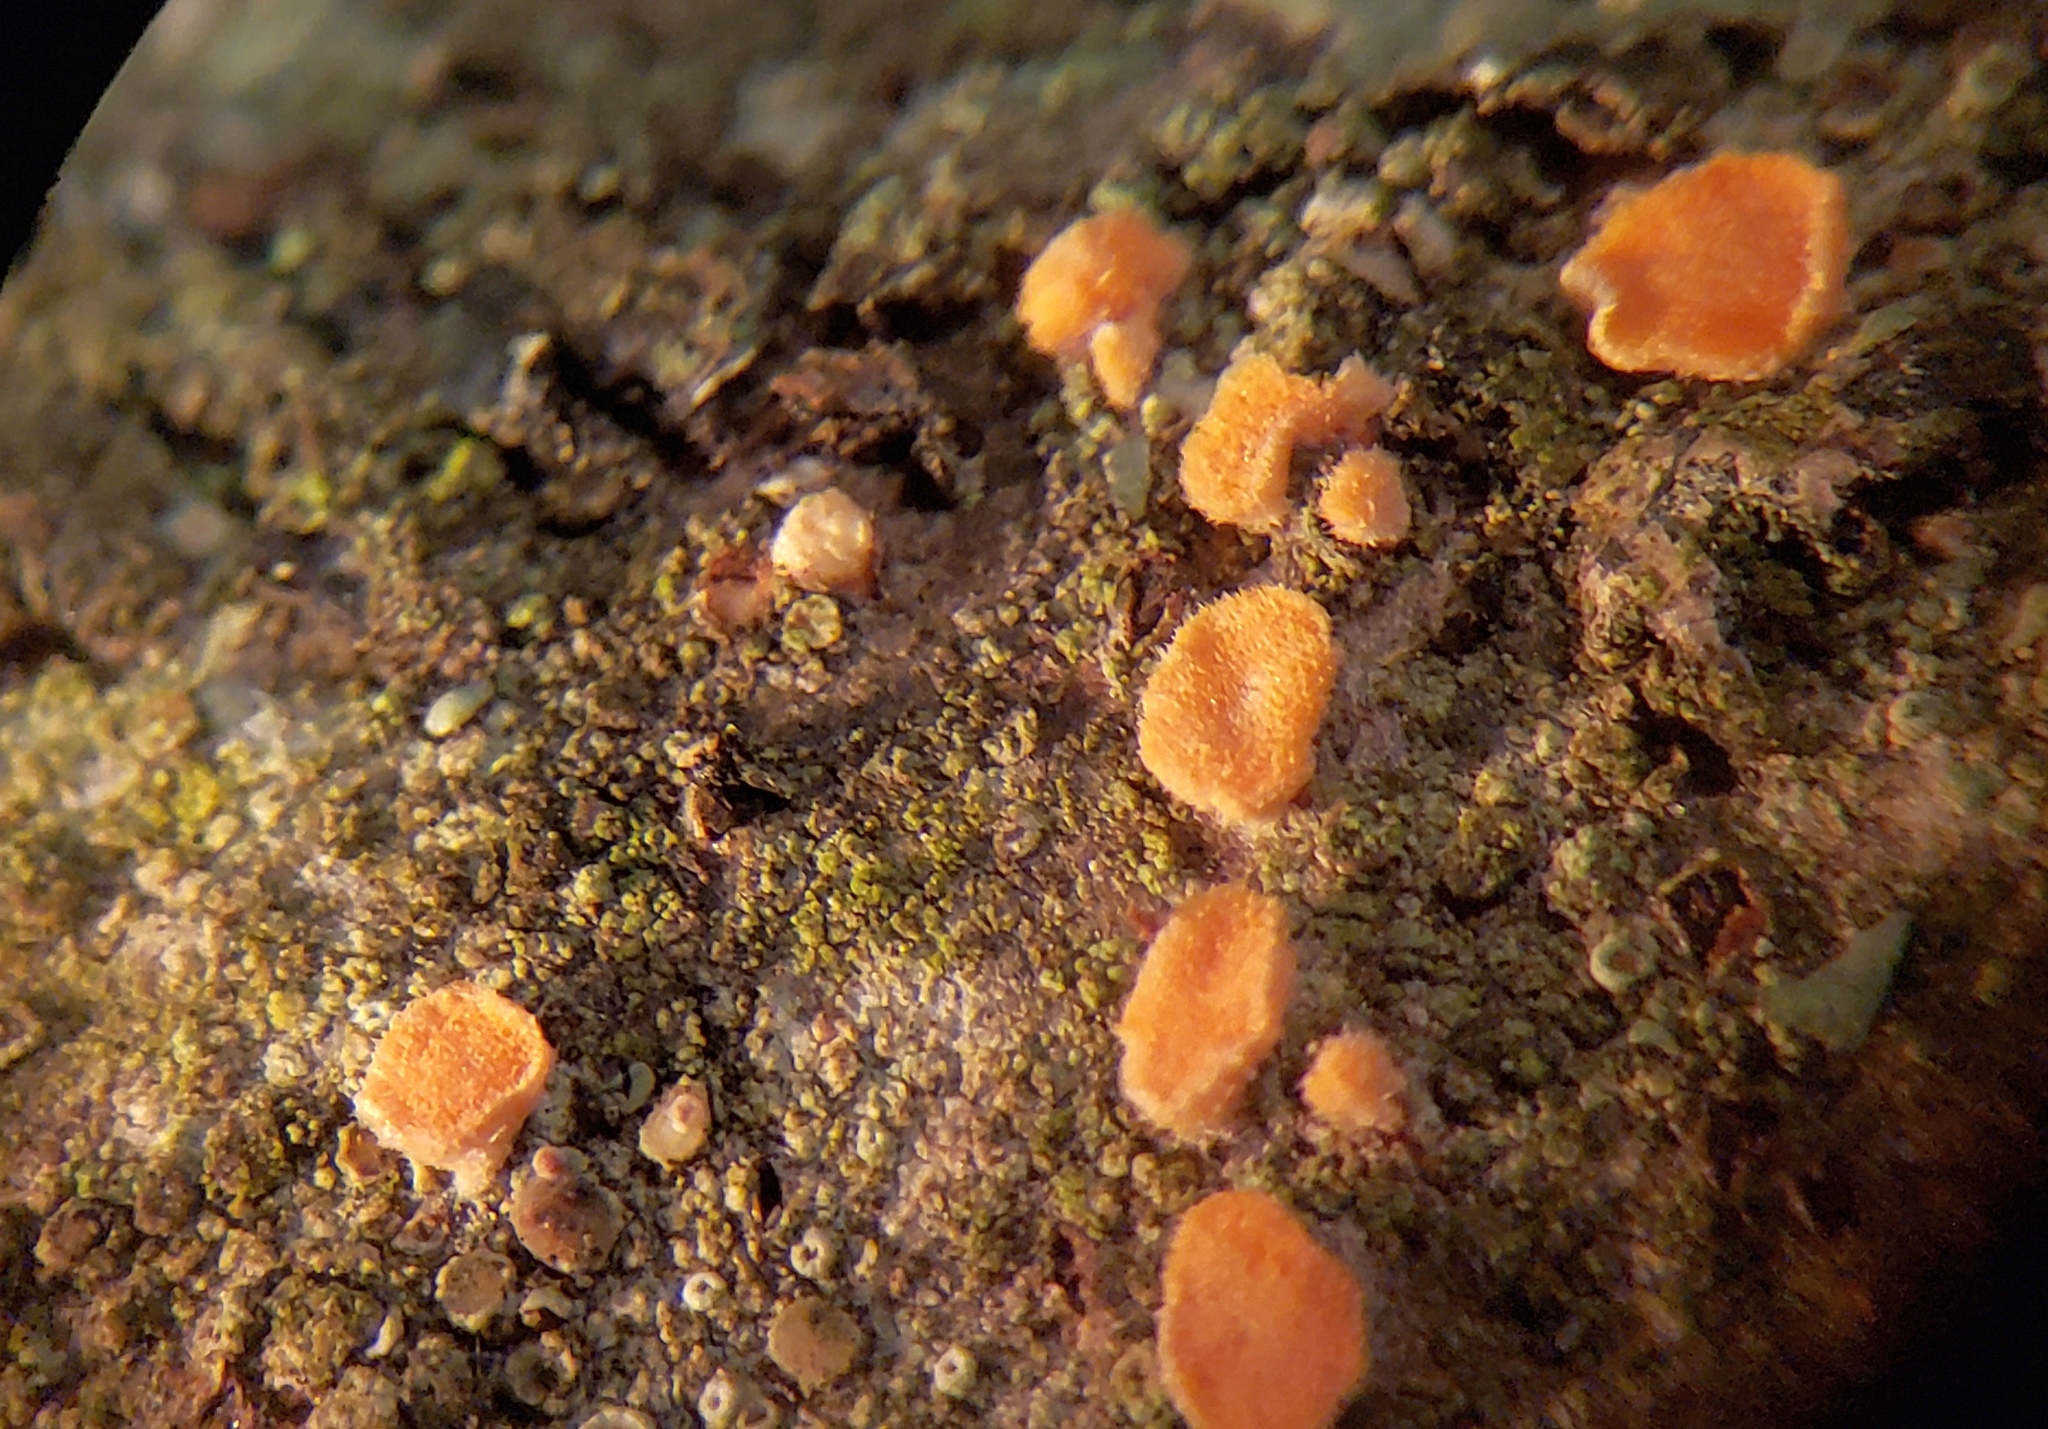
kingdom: Fungi
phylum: Basidiomycota
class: Agaricomycetes
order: Russulales
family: Stereaceae
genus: Aleurodiscus
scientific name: Aleurodiscus amorphus
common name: Orange discus
